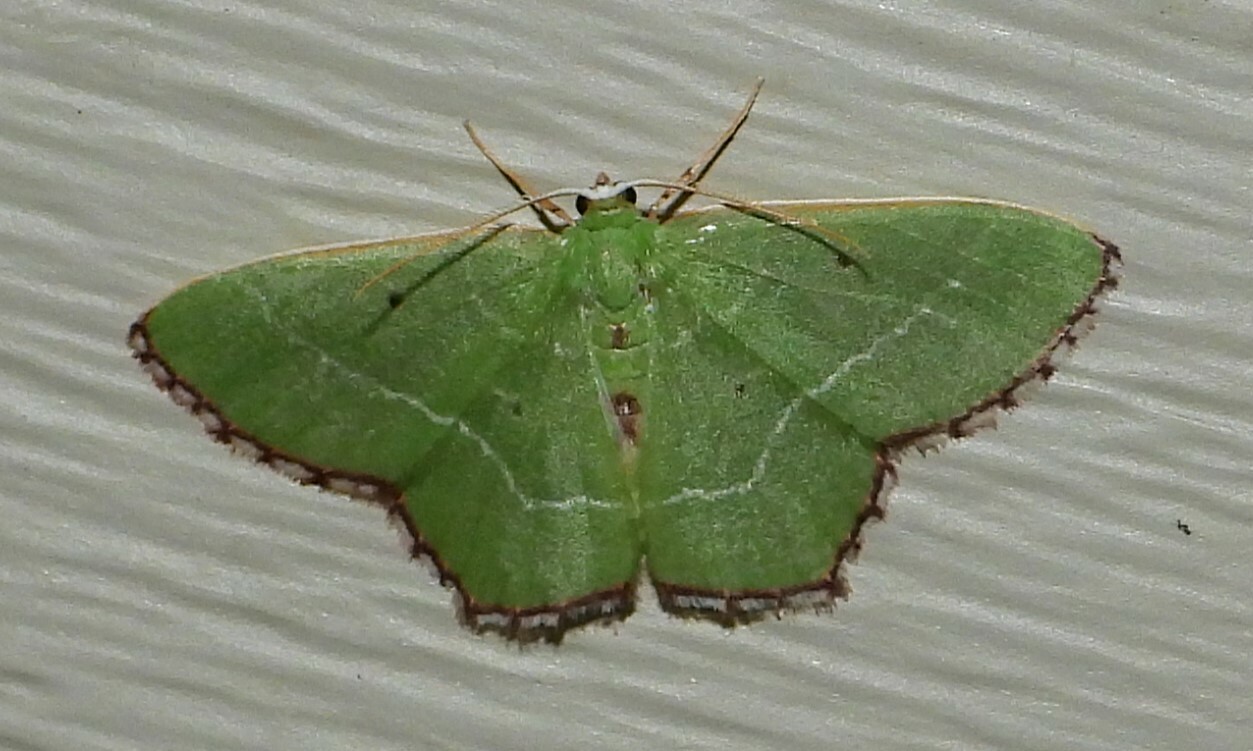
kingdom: Animalia
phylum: Arthropoda
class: Insecta
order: Lepidoptera
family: Geometridae
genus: Nemoria
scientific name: Nemoria saturiba
